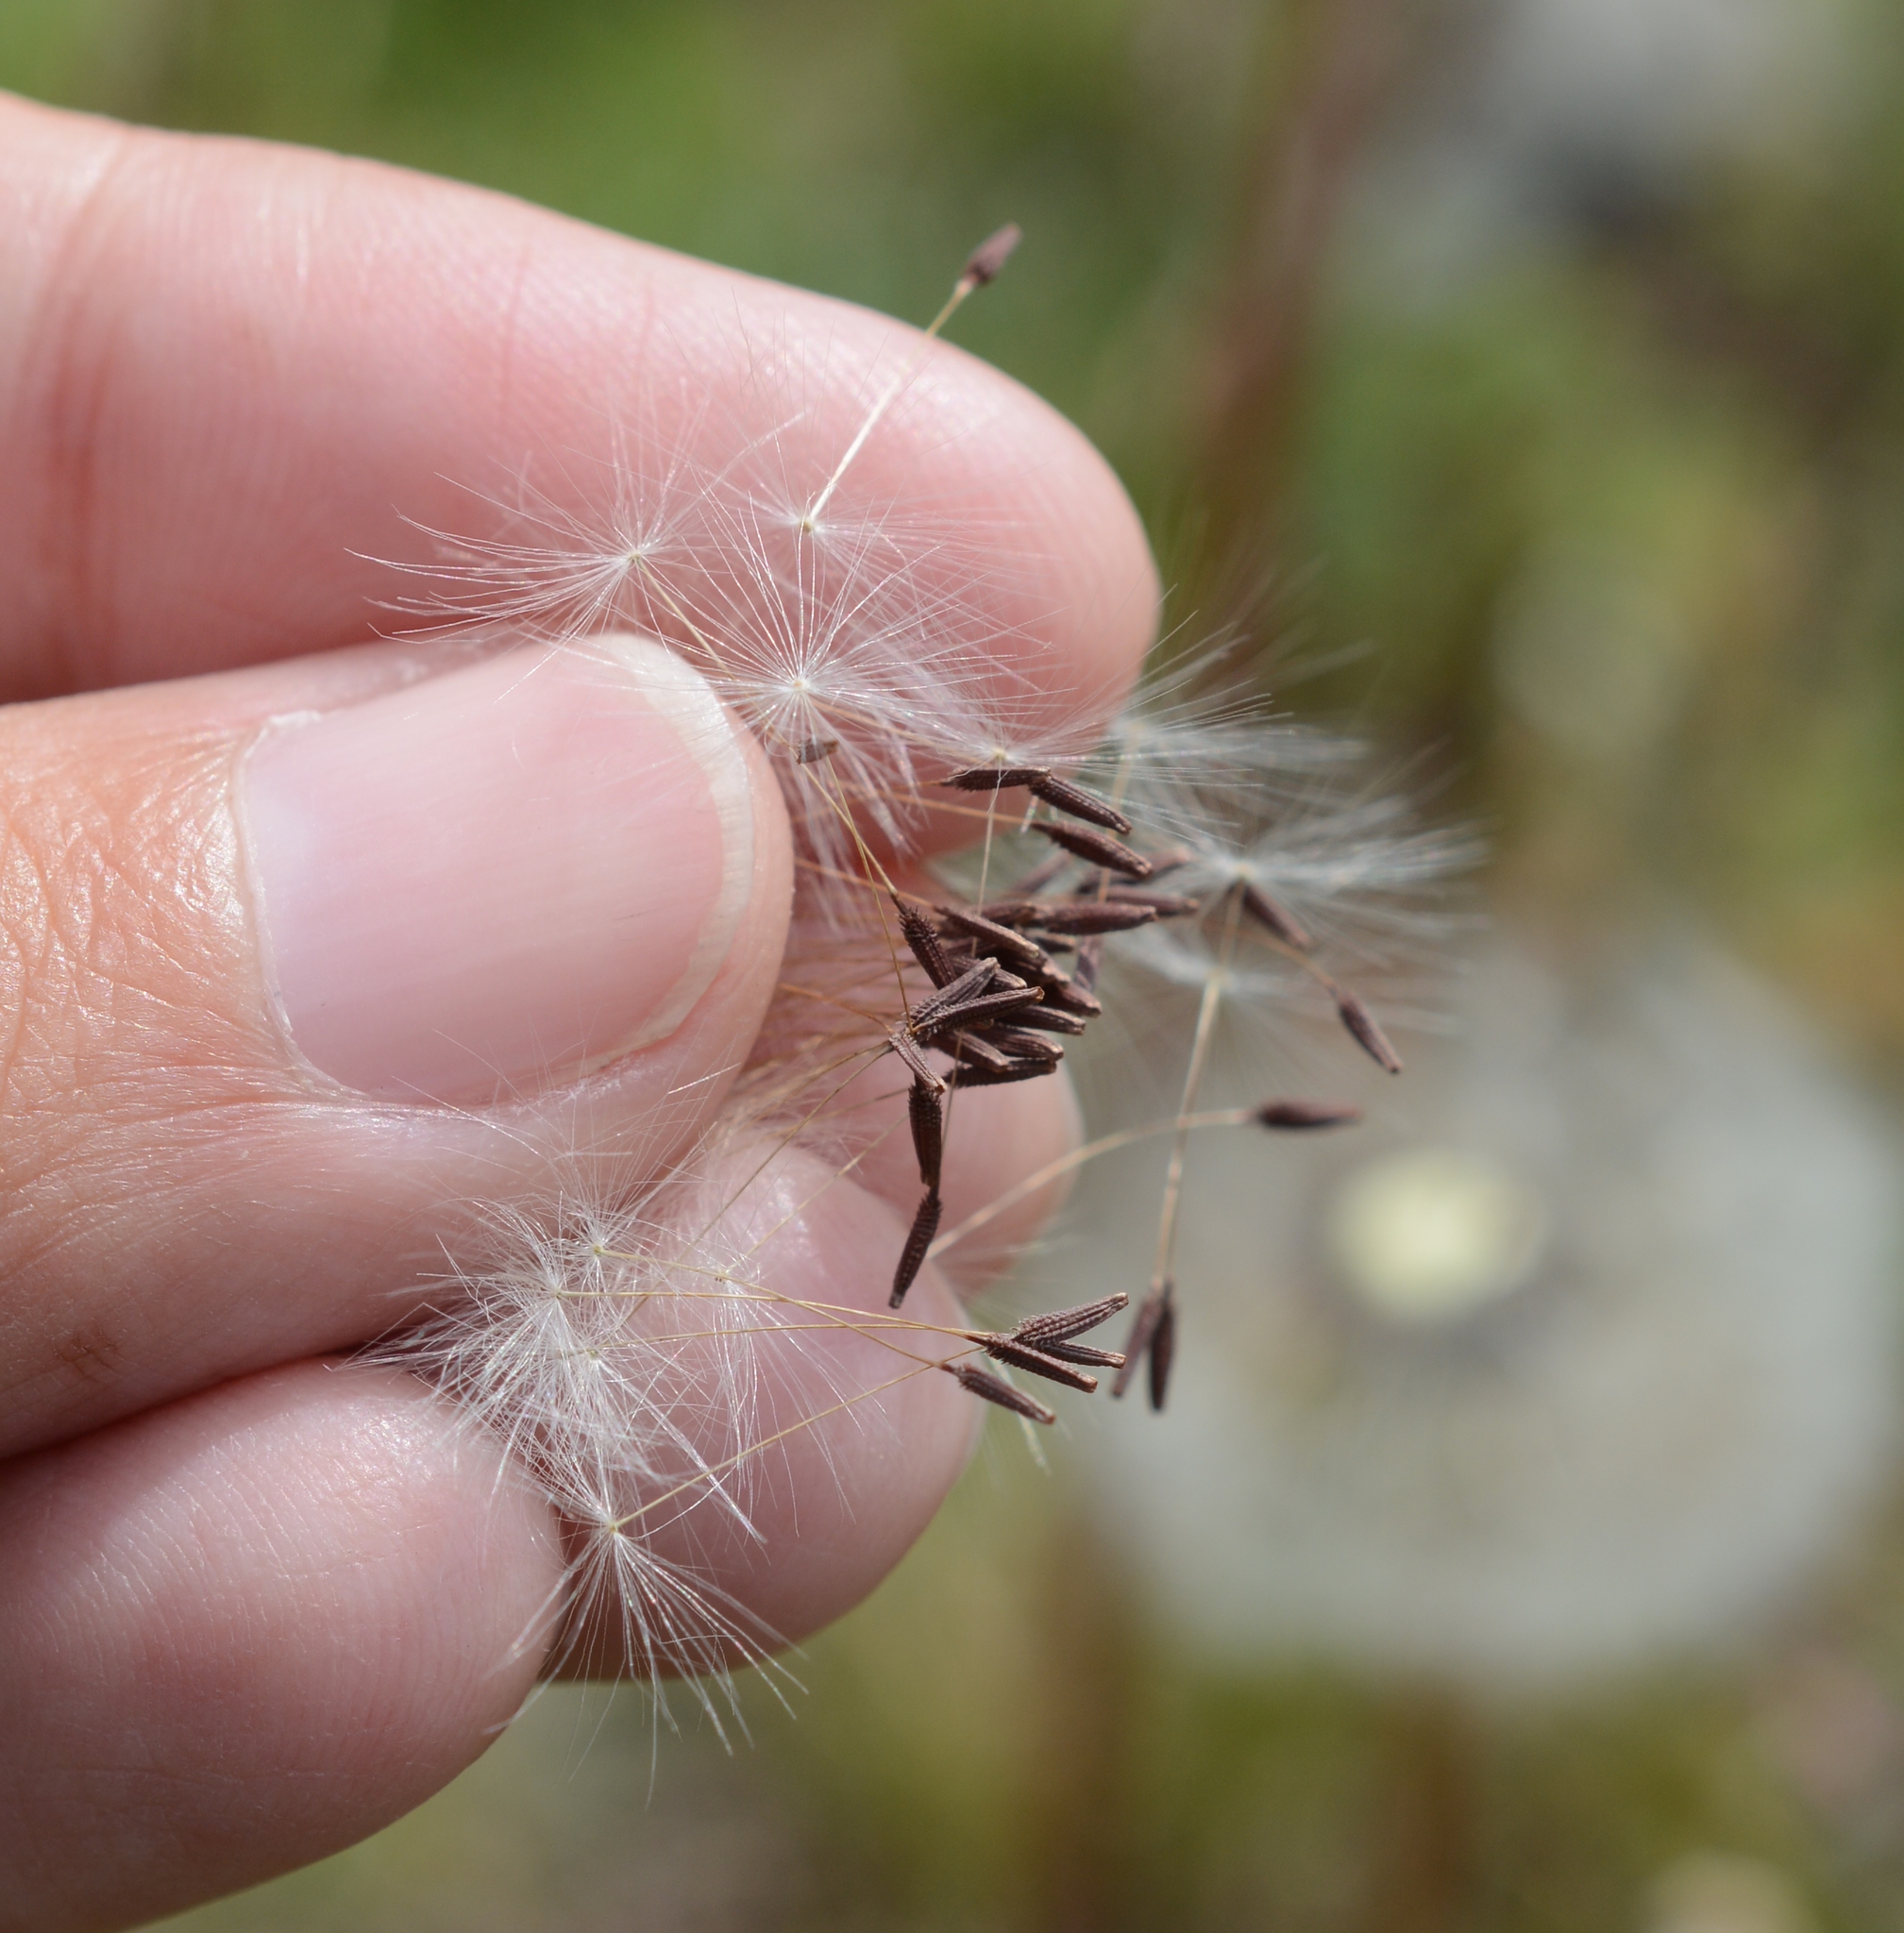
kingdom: Plantae
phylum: Tracheophyta
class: Magnoliopsida
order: Asterales
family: Asteraceae
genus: Taraxacum
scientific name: Taraxacum erythrospermum
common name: Rock dandelion
